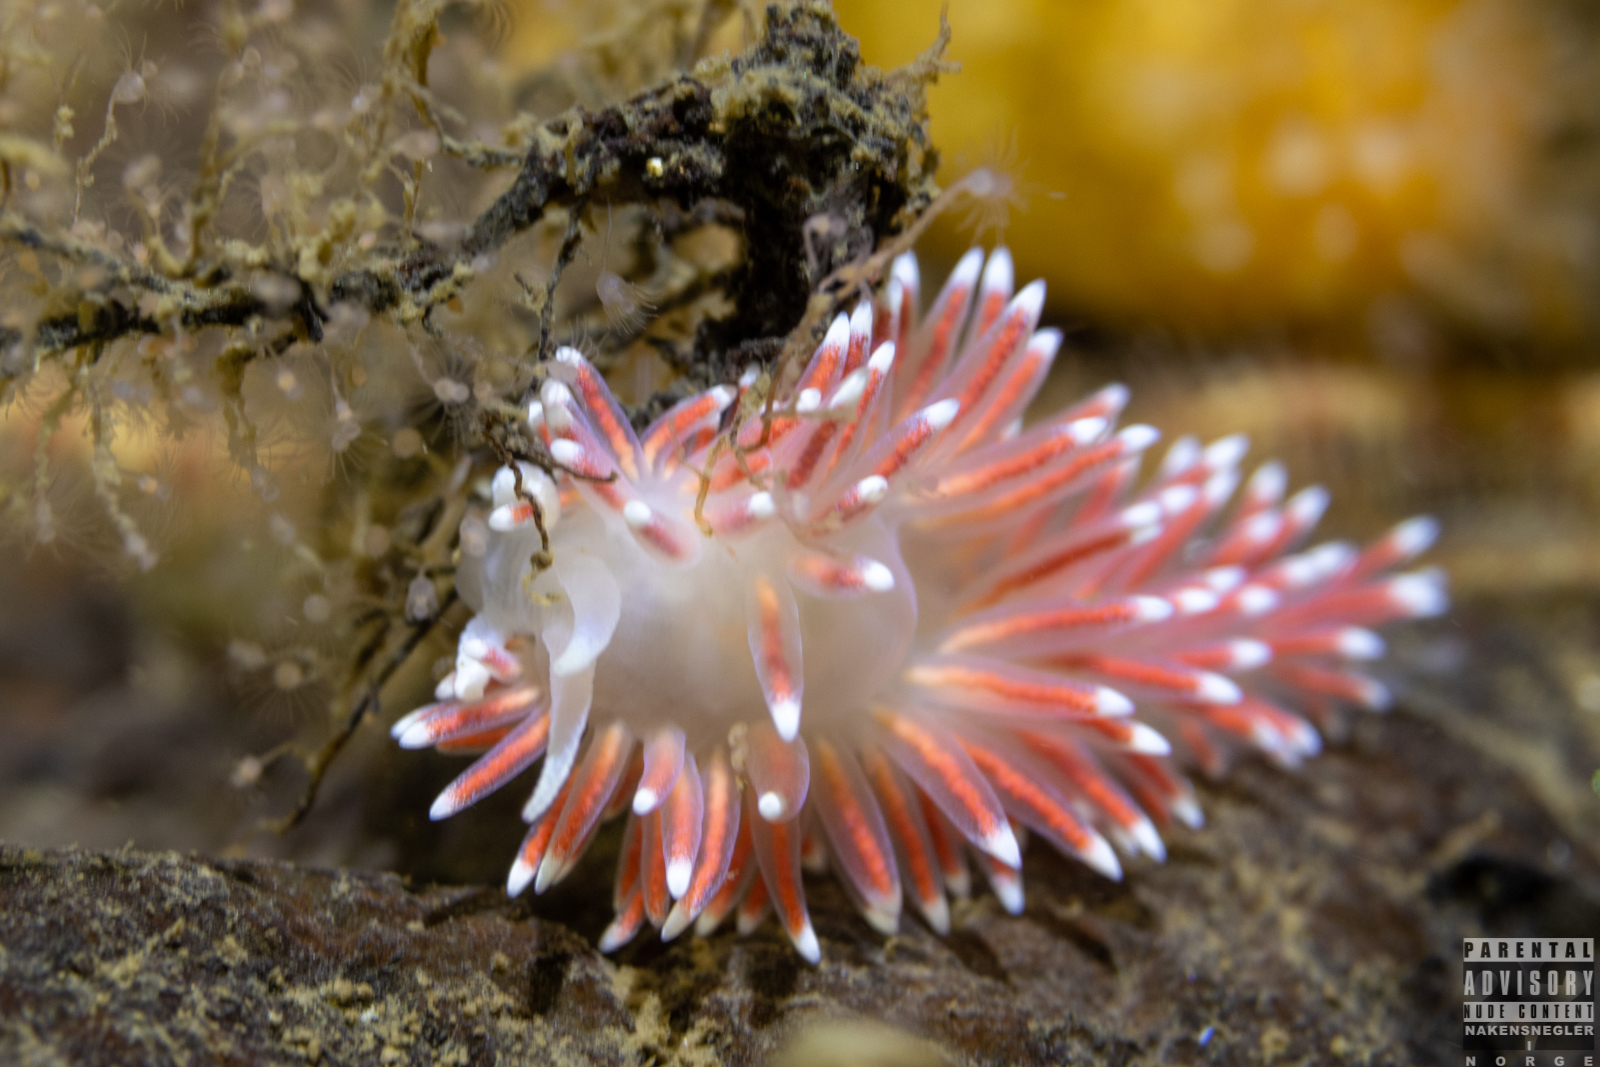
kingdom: Animalia
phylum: Mollusca
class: Gastropoda
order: Nudibranchia
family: Flabellinidae
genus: Carronella
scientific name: Carronella pellucida
